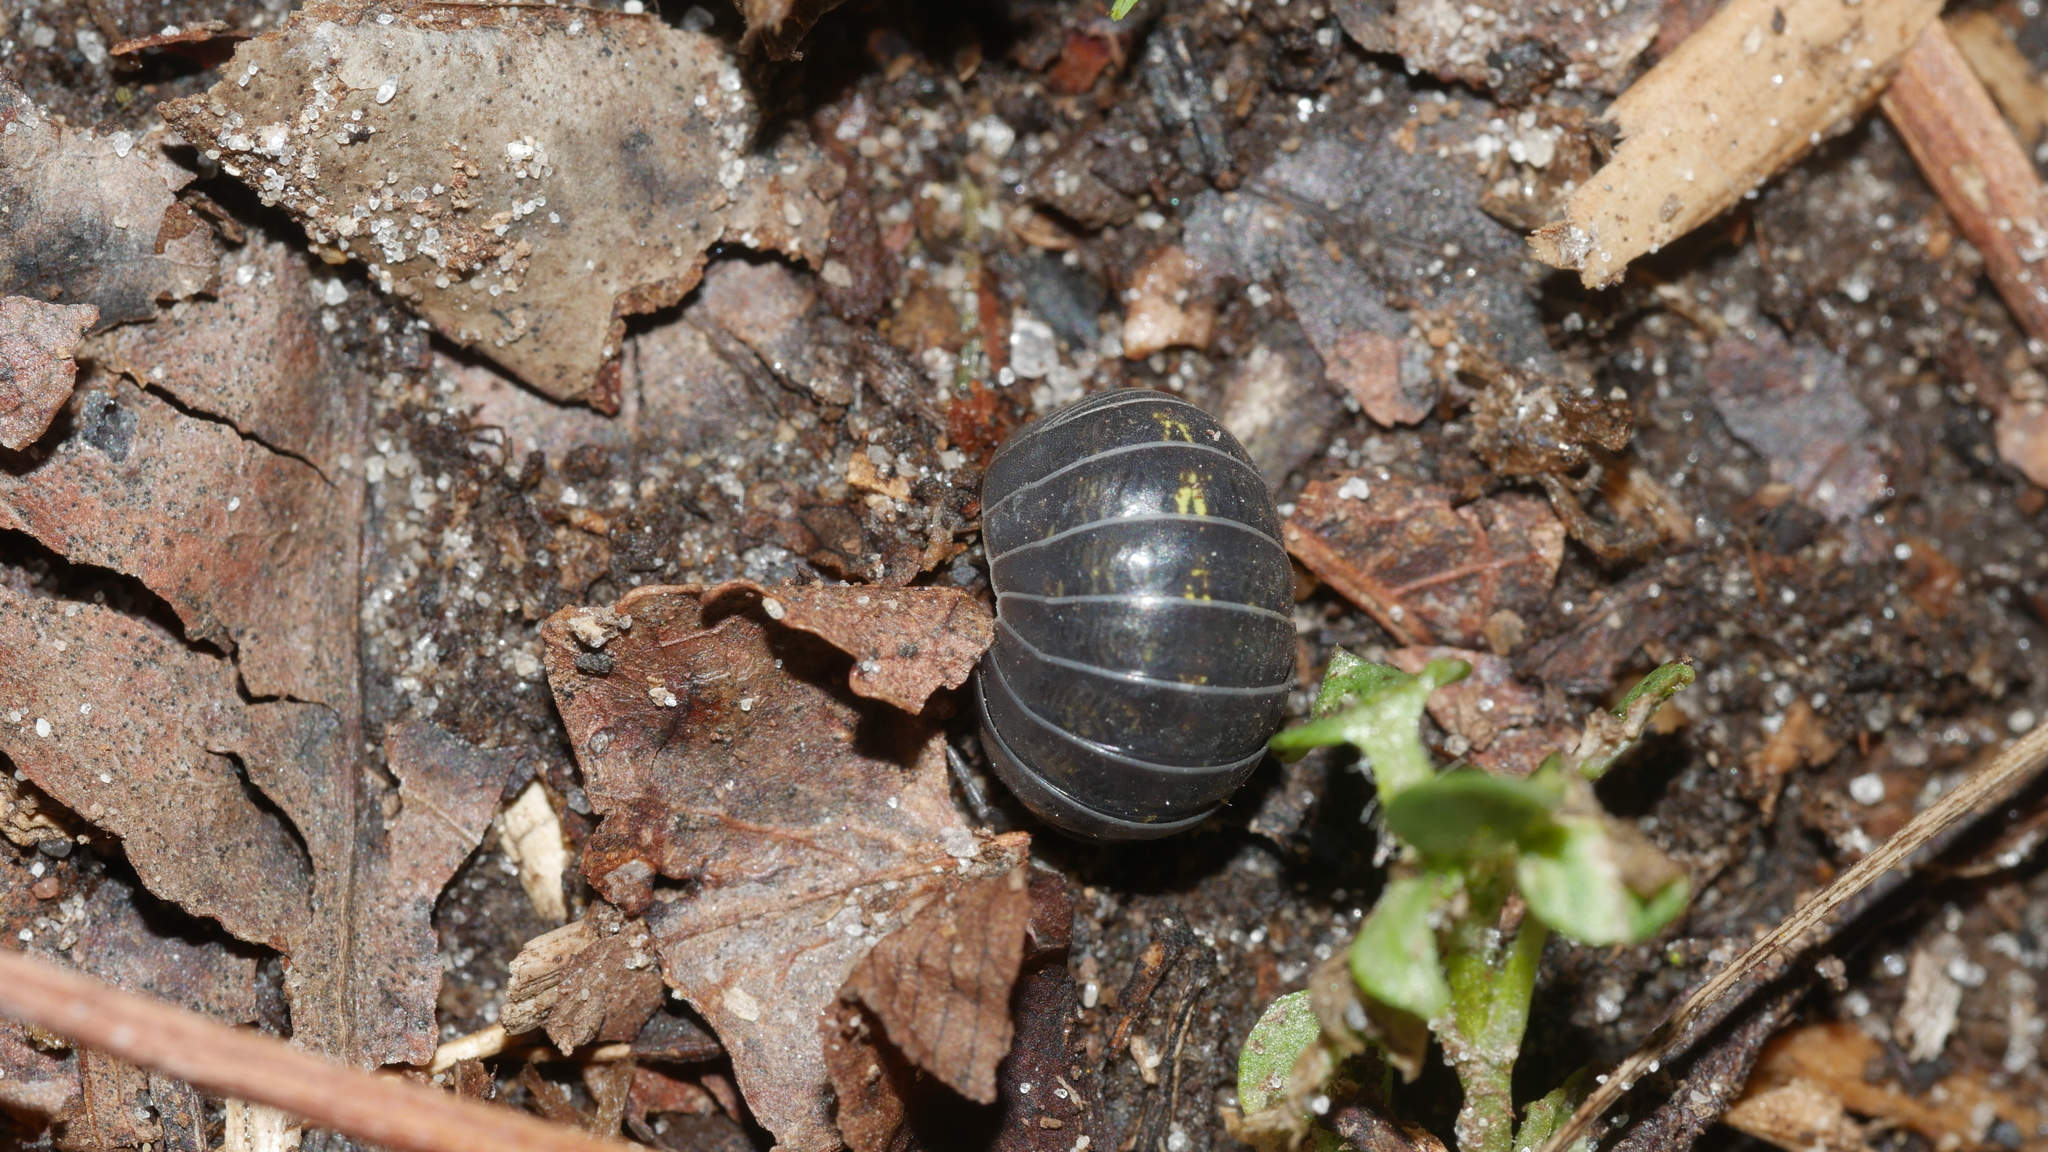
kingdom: Animalia
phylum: Arthropoda
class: Malacostraca
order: Isopoda
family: Armadillidiidae
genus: Armadillidium
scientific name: Armadillidium vulgare
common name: Common pill woodlouse
